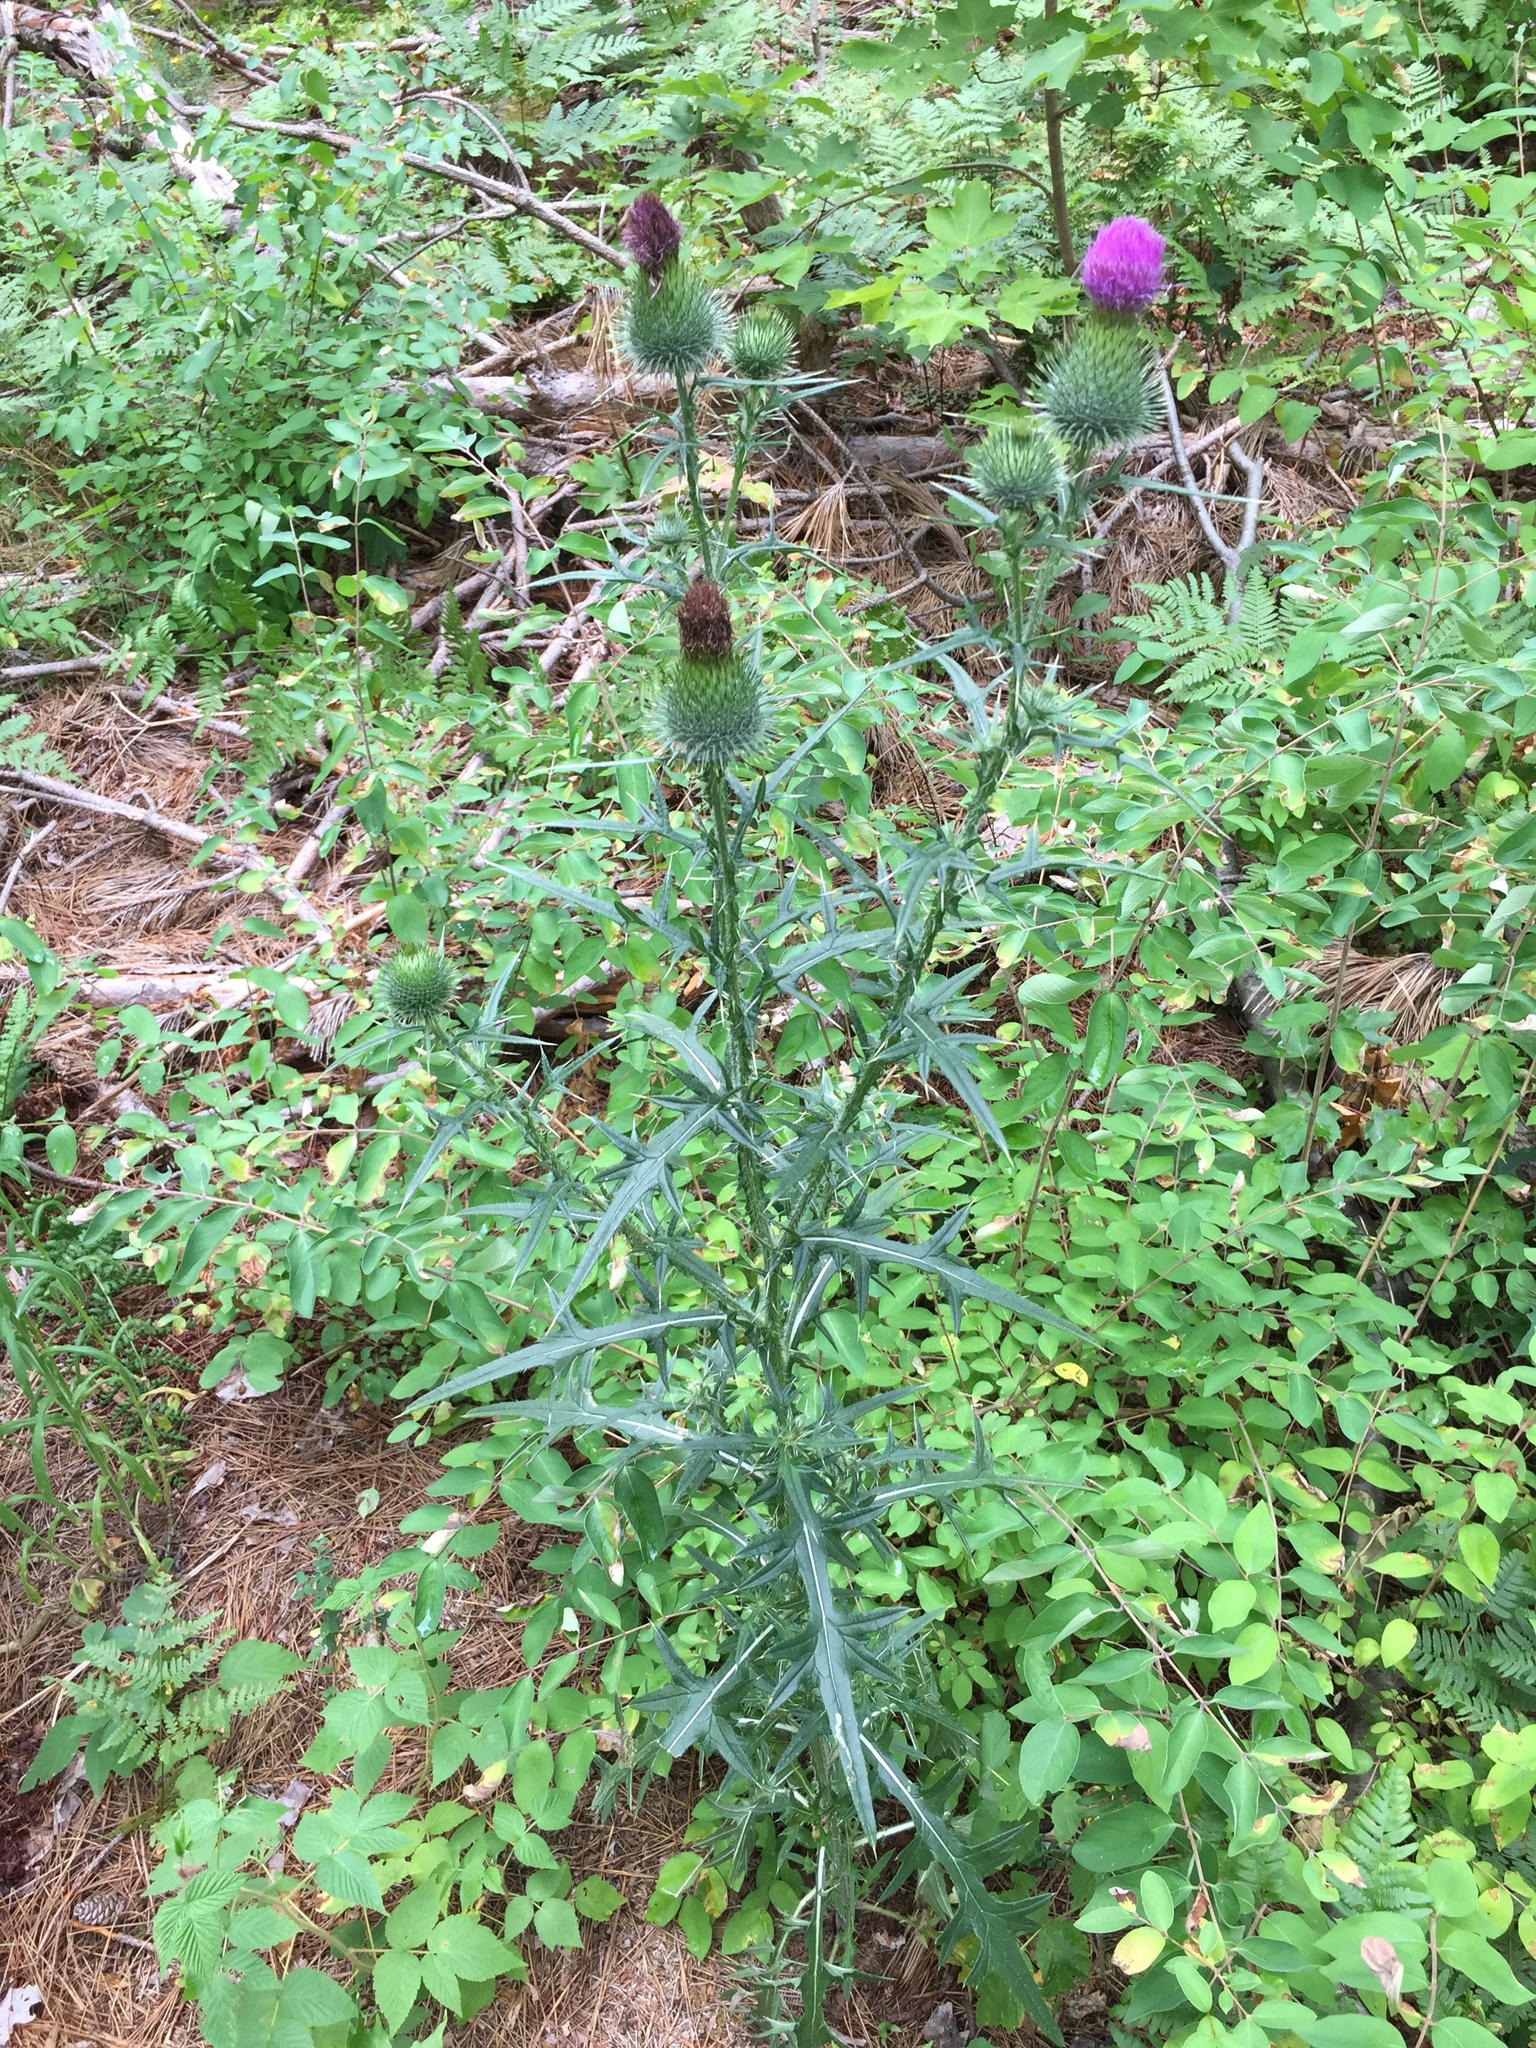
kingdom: Plantae
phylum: Tracheophyta
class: Magnoliopsida
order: Asterales
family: Asteraceae
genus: Cirsium
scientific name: Cirsium vulgare
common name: Bull thistle
